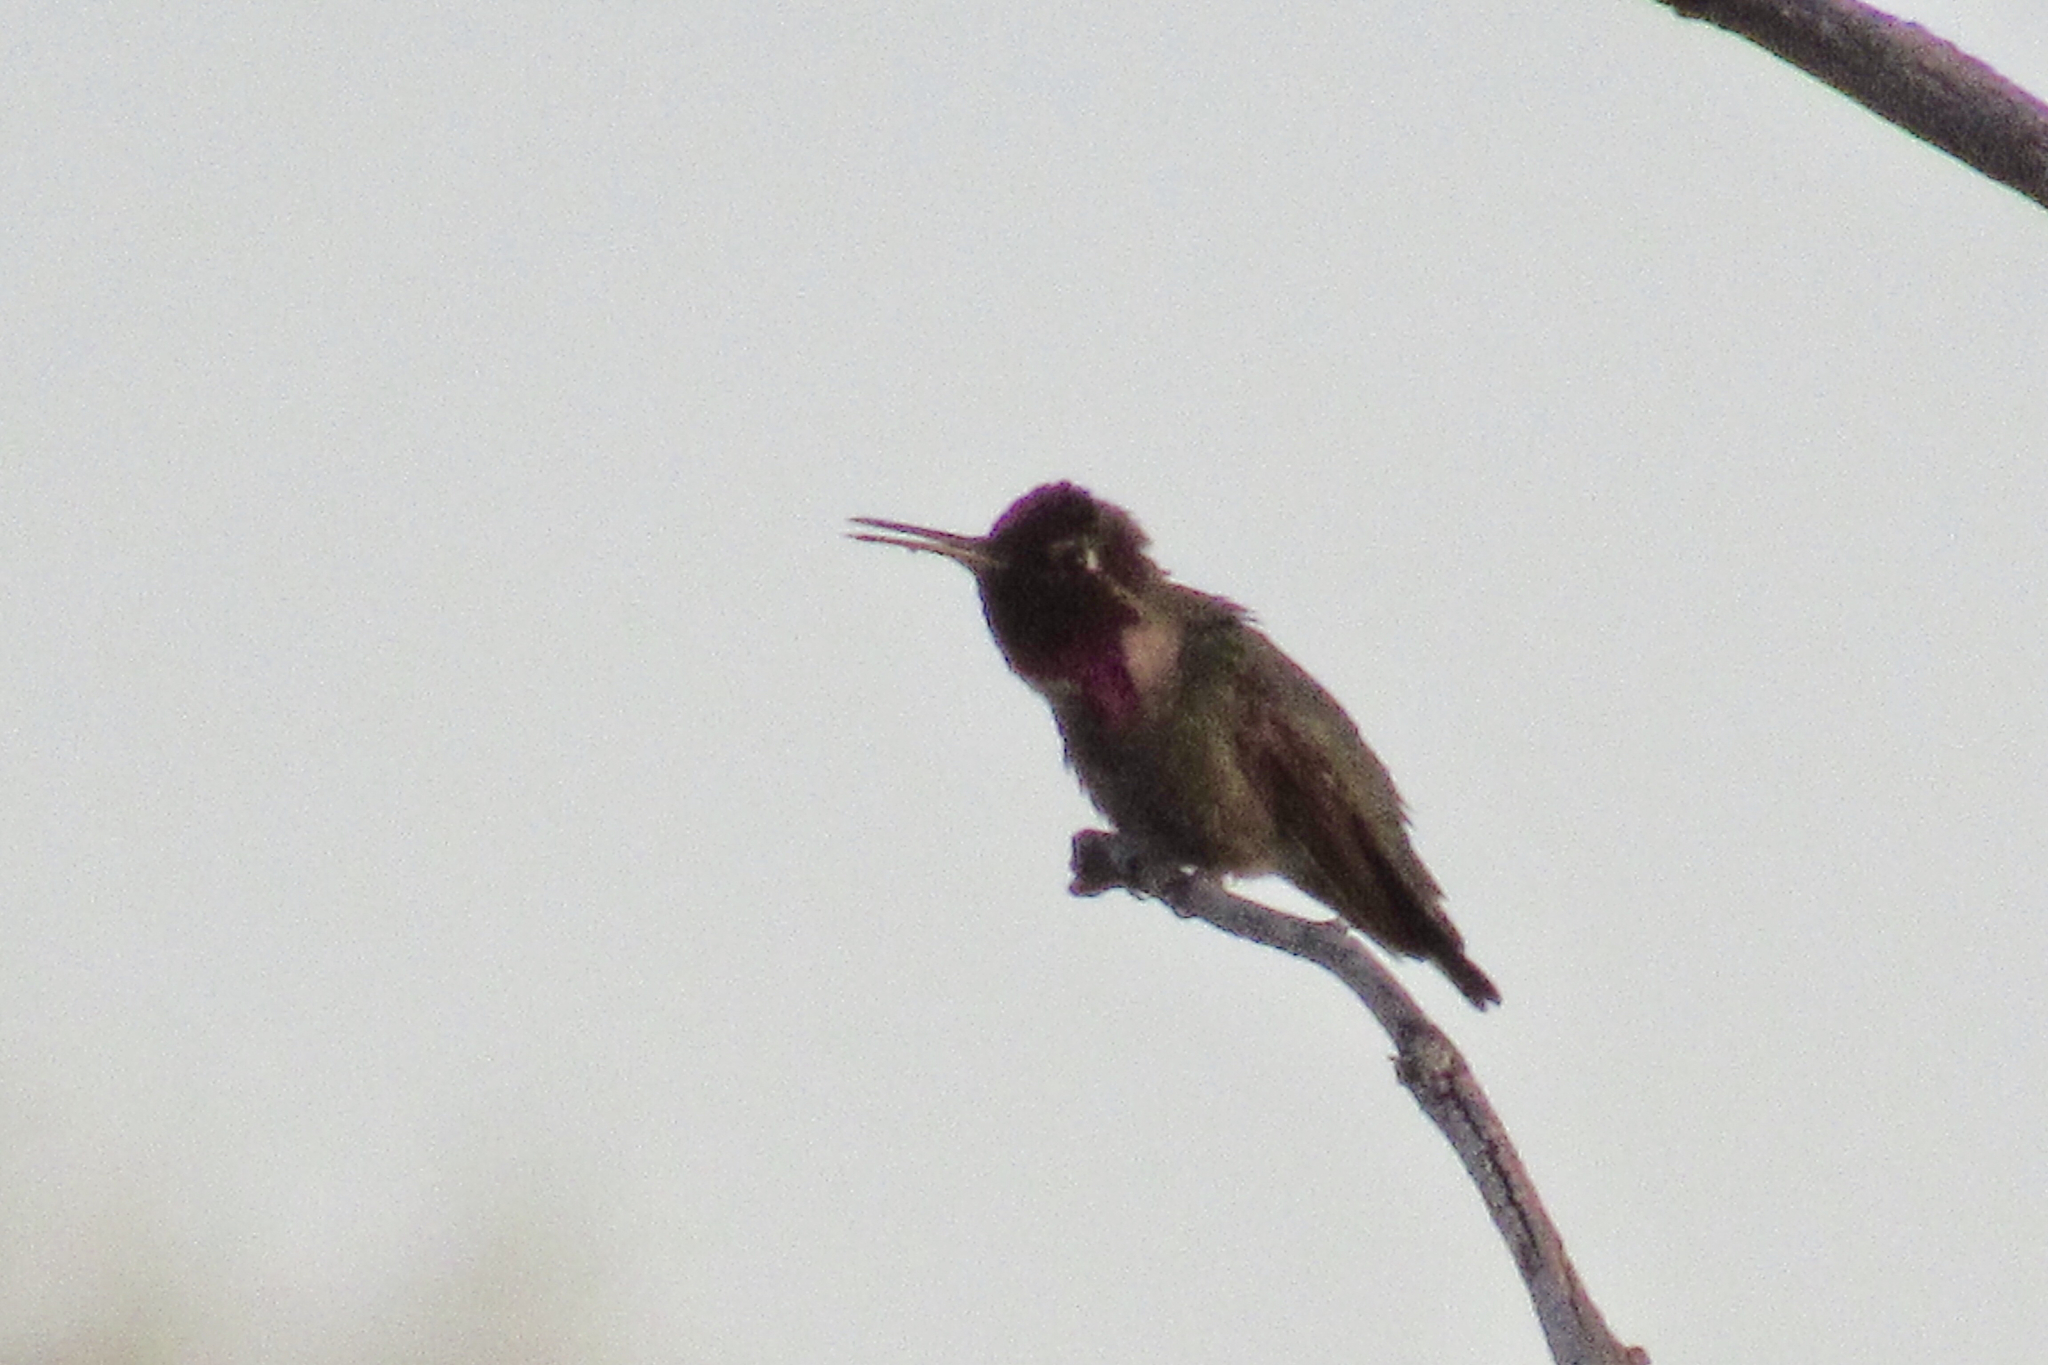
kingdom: Animalia
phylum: Chordata
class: Aves
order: Apodiformes
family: Trochilidae
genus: Calypte
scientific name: Calypte anna
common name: Anna's hummingbird
